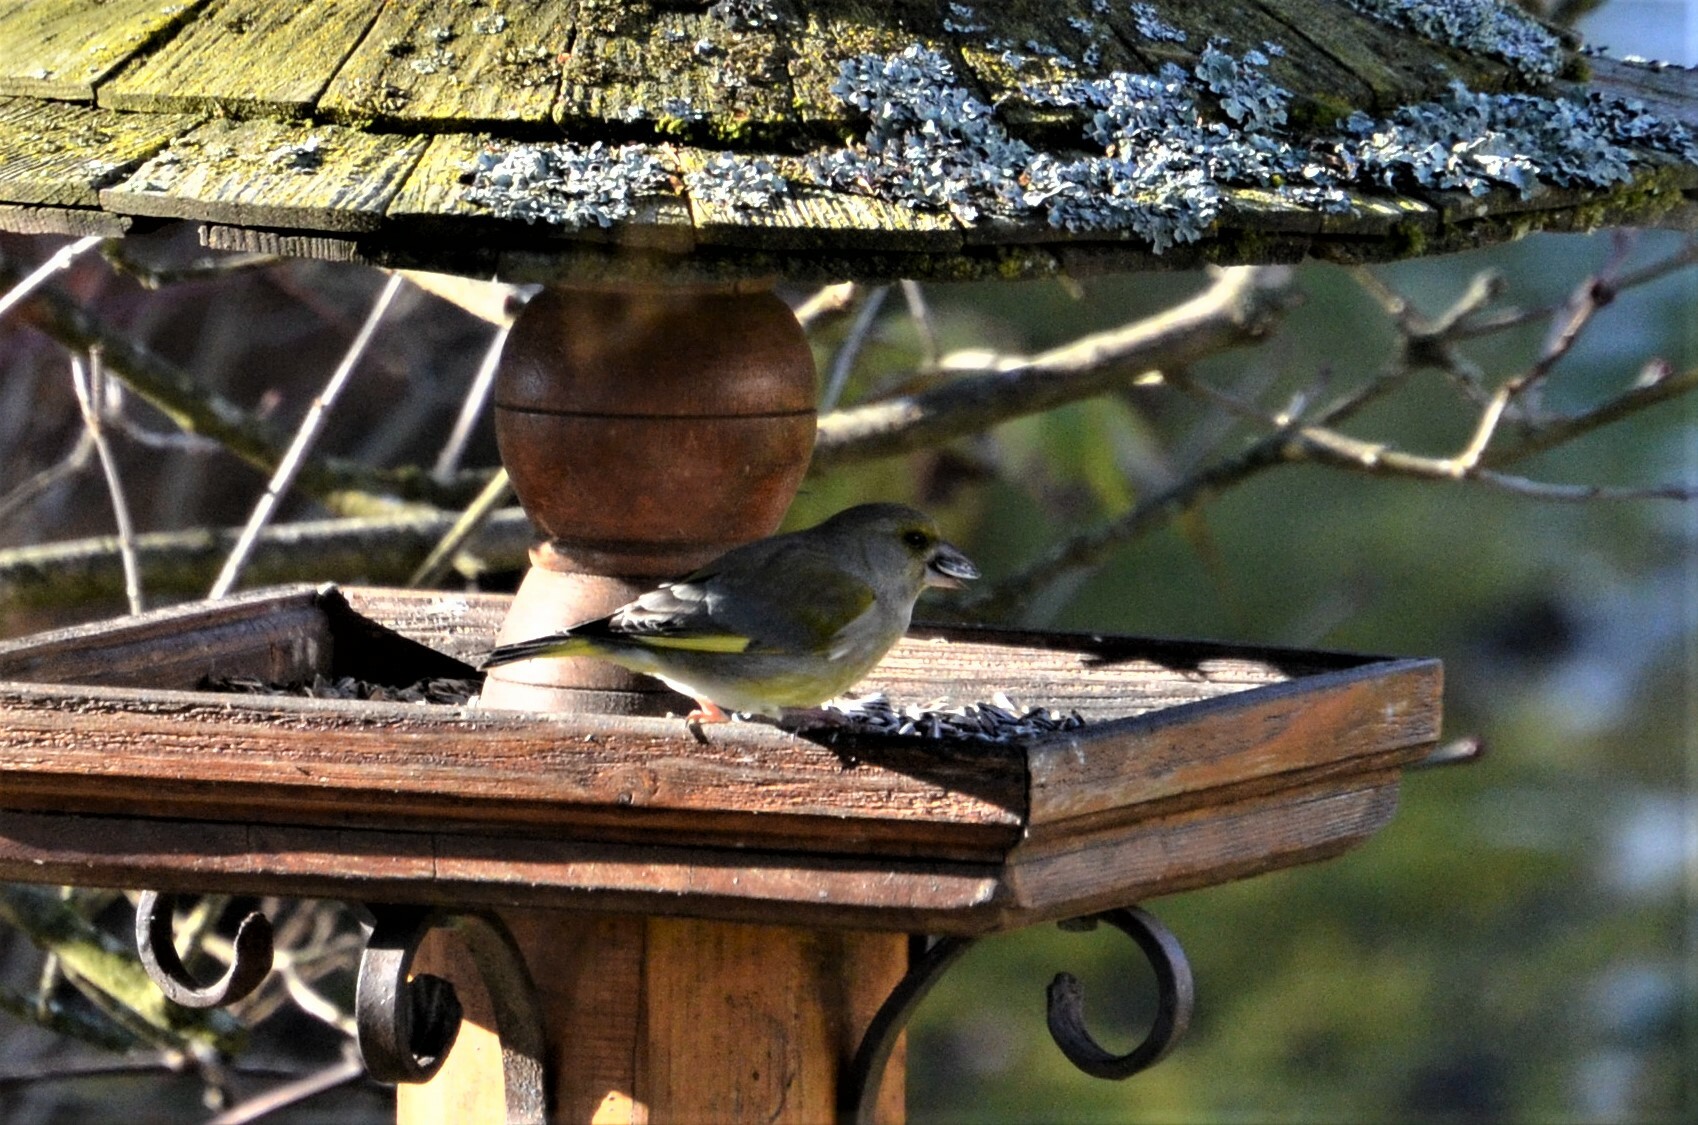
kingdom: Plantae
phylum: Tracheophyta
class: Liliopsida
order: Poales
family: Poaceae
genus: Chloris
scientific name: Chloris chloris
